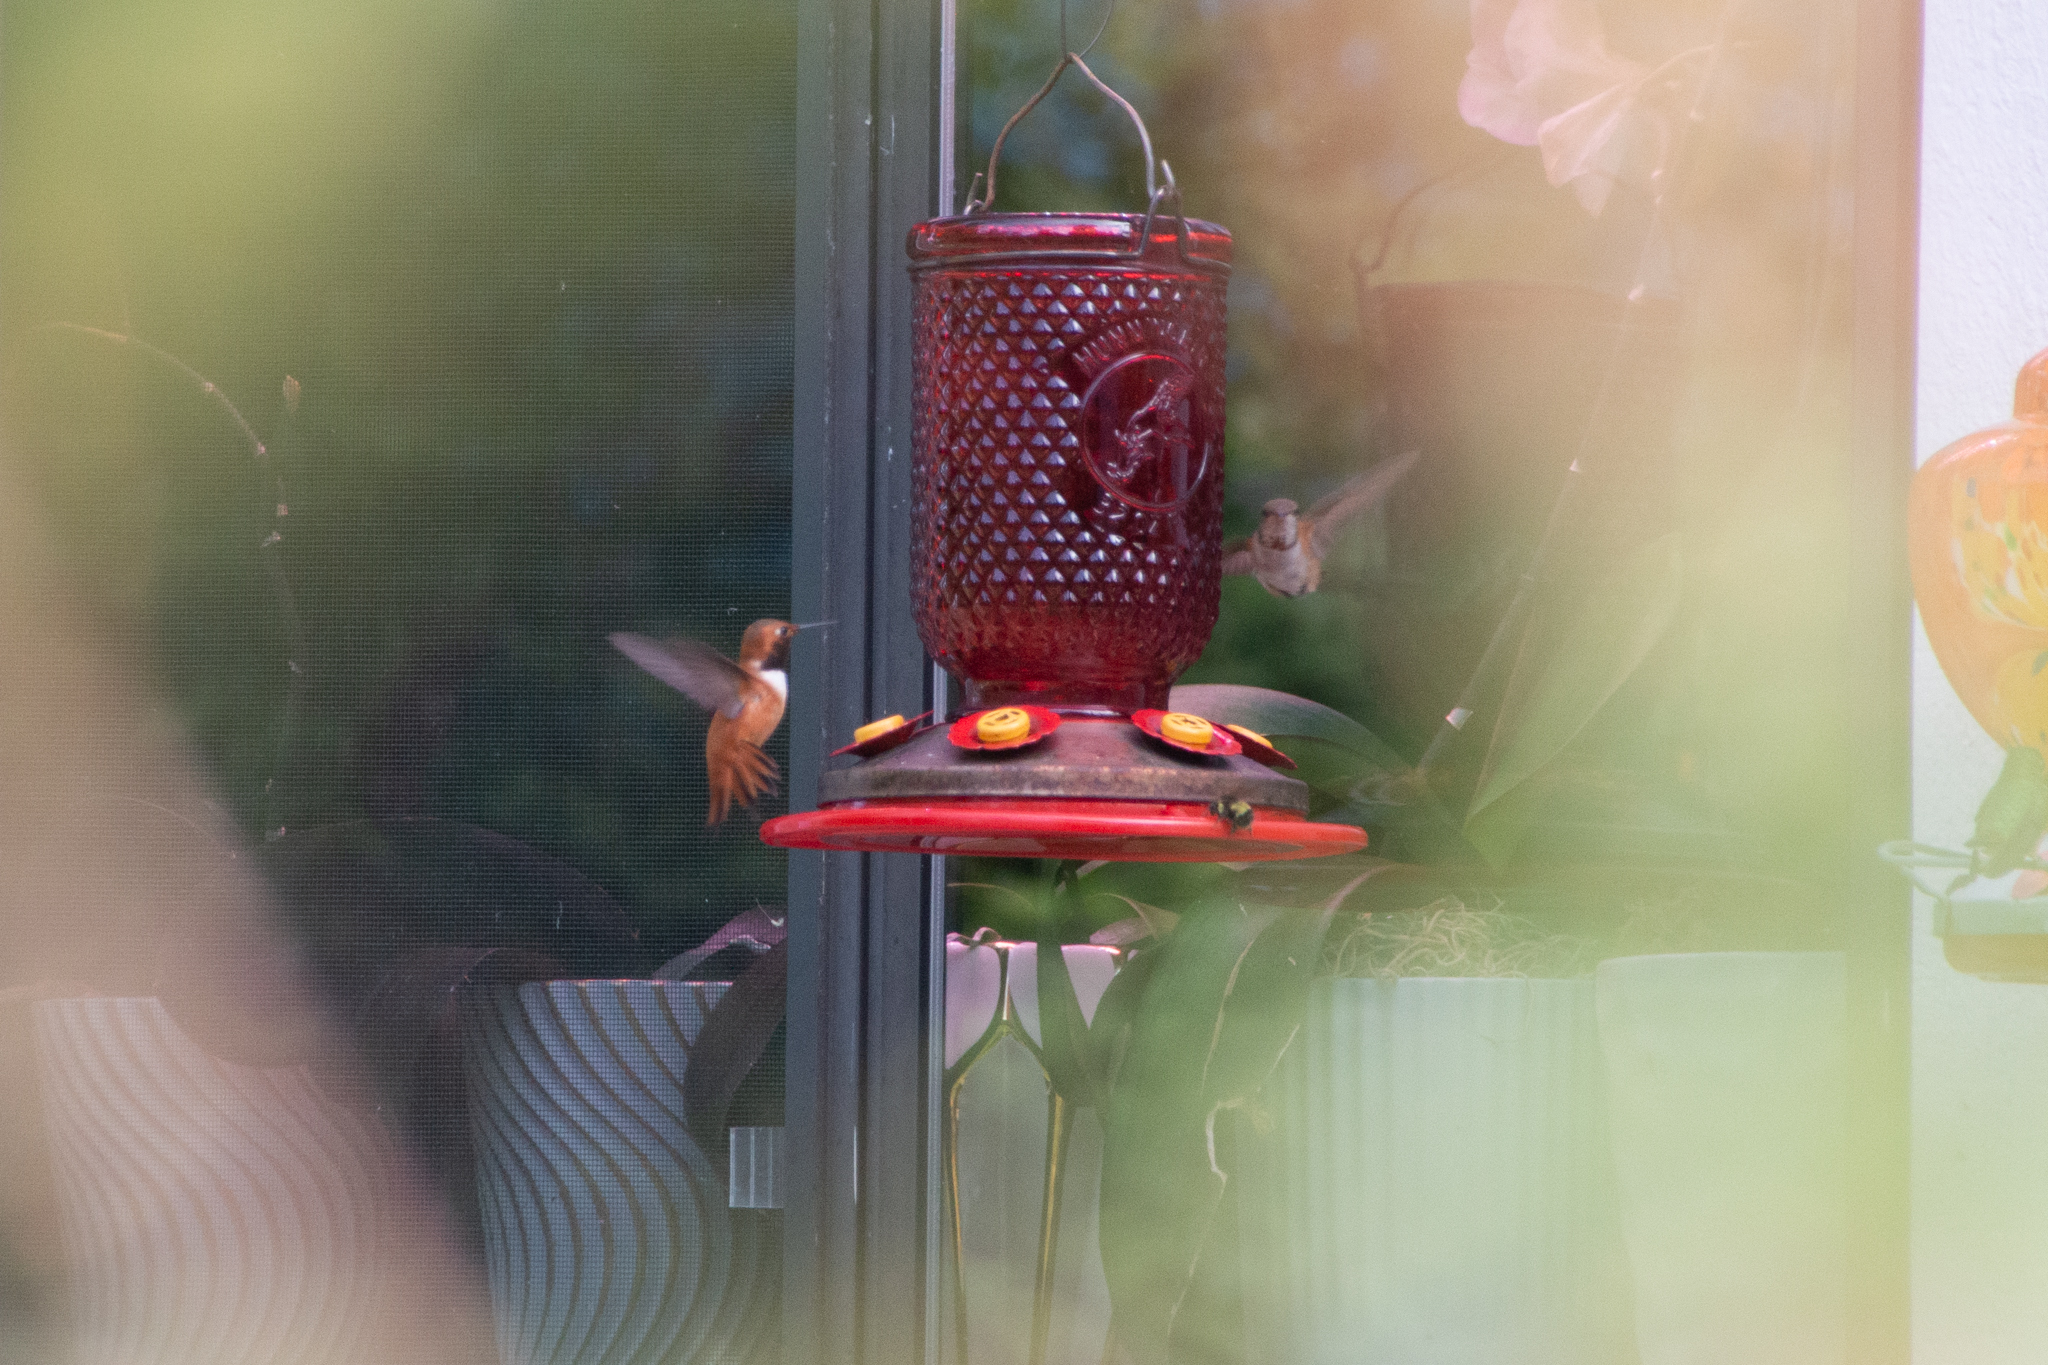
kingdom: Animalia
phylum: Chordata
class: Aves
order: Apodiformes
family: Trochilidae
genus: Selasphorus
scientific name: Selasphorus rufus
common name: Rufous hummingbird
